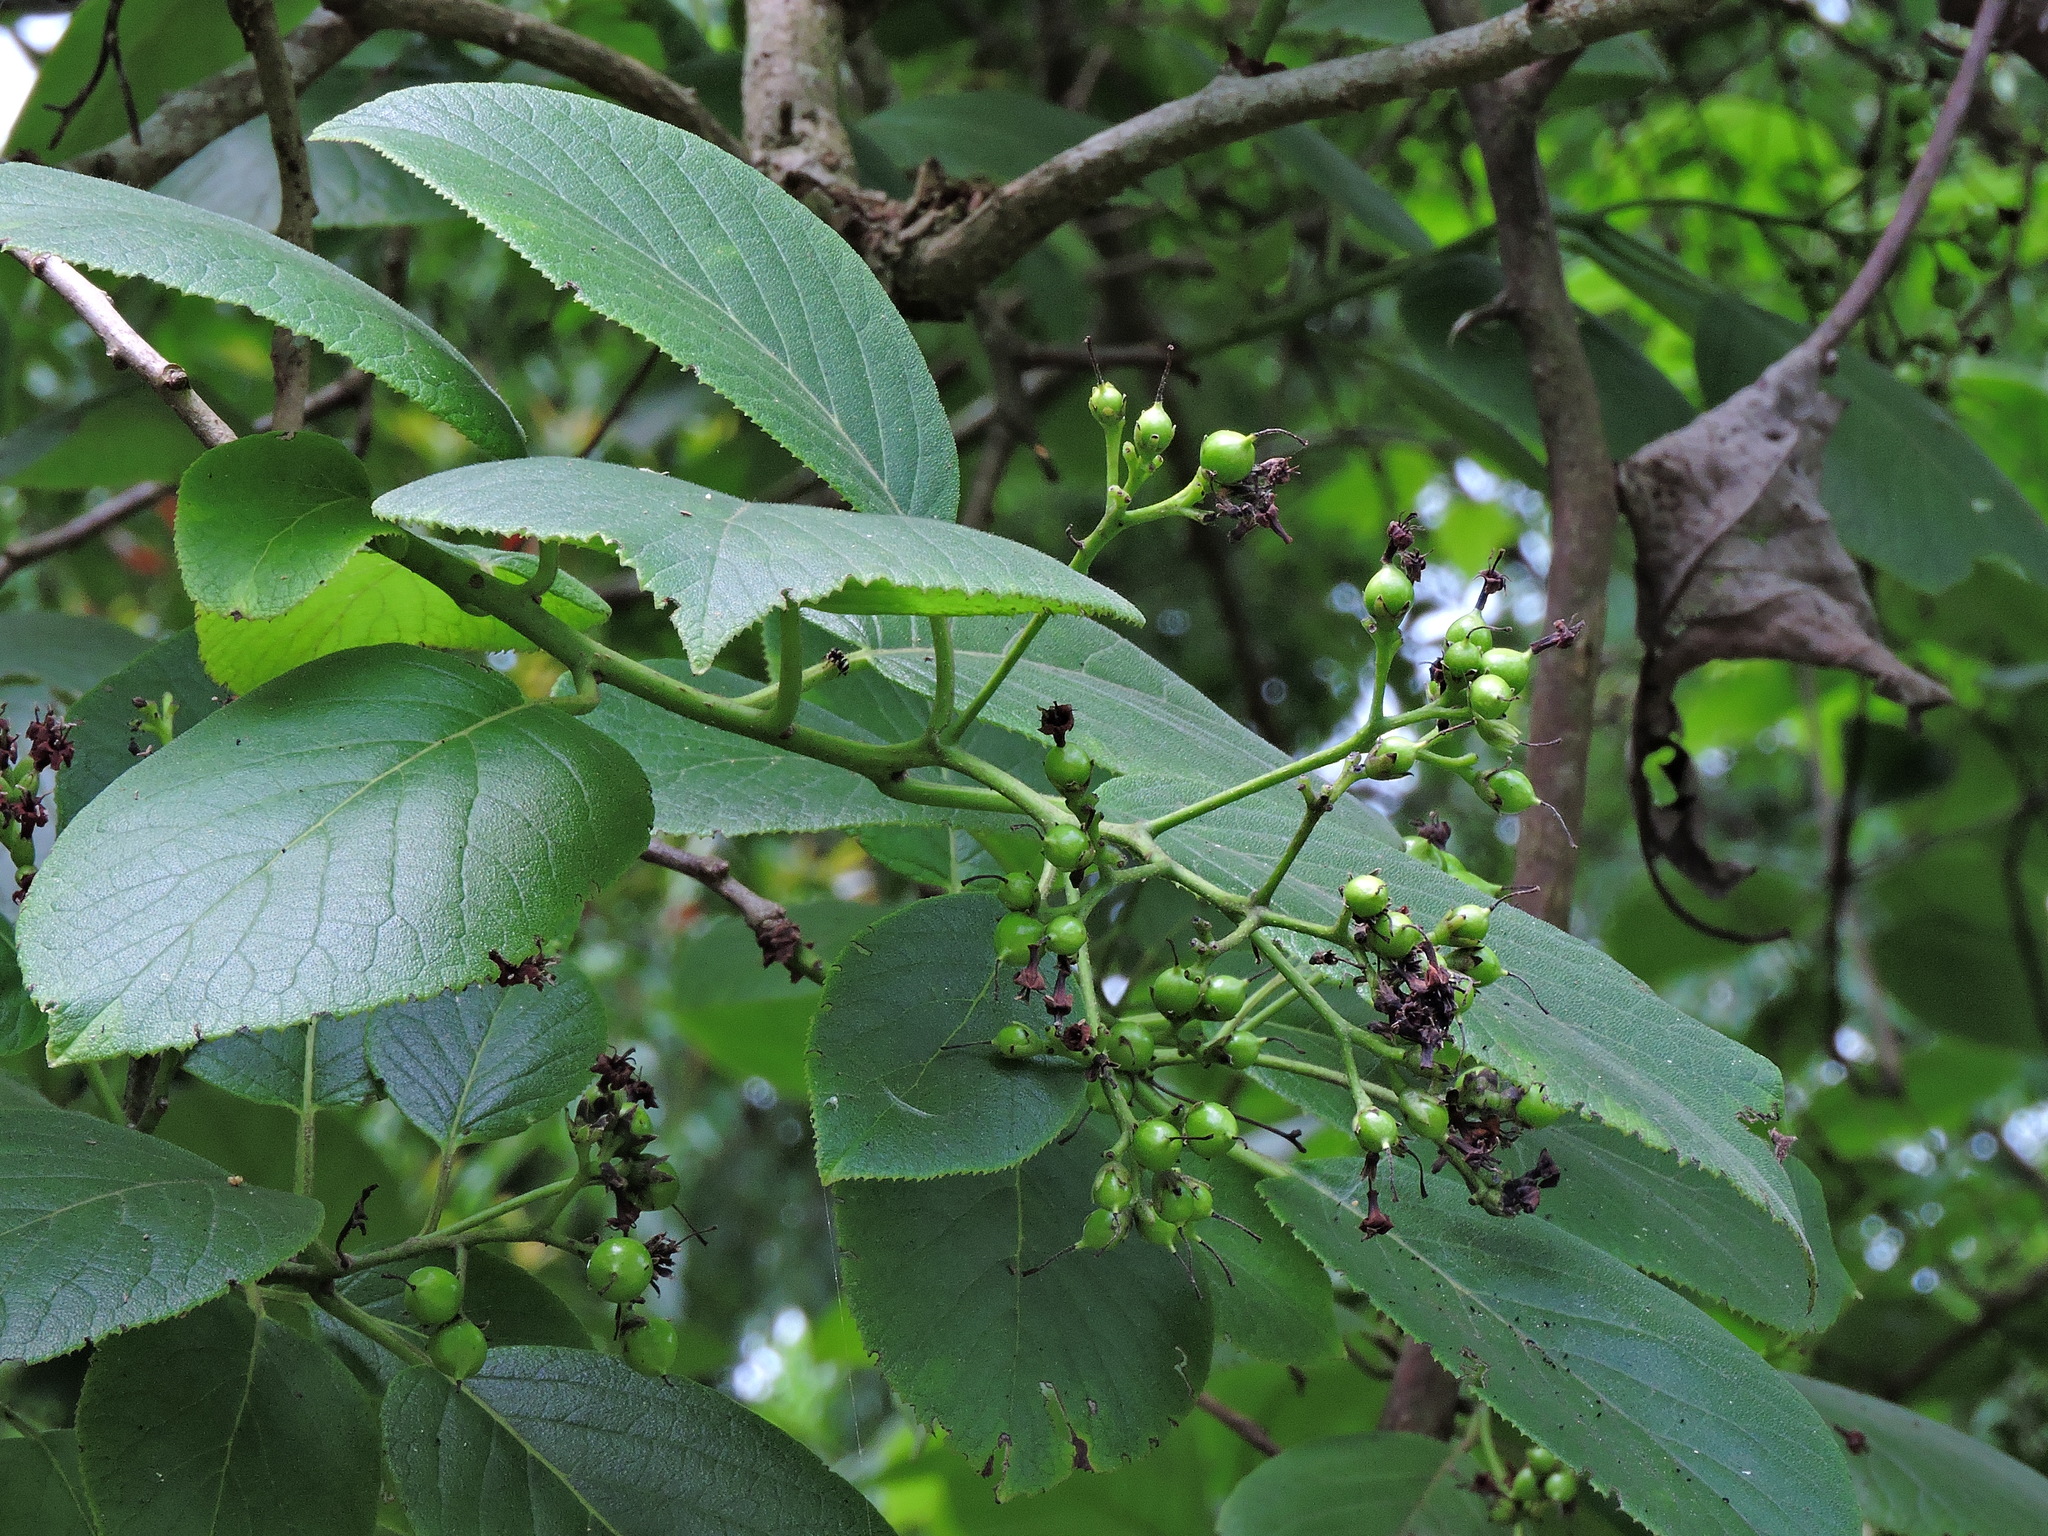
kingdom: Plantae
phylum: Tracheophyta
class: Magnoliopsida
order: Boraginales
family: Ehretiaceae
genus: Ehretia
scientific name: Ehretia dicksonii
